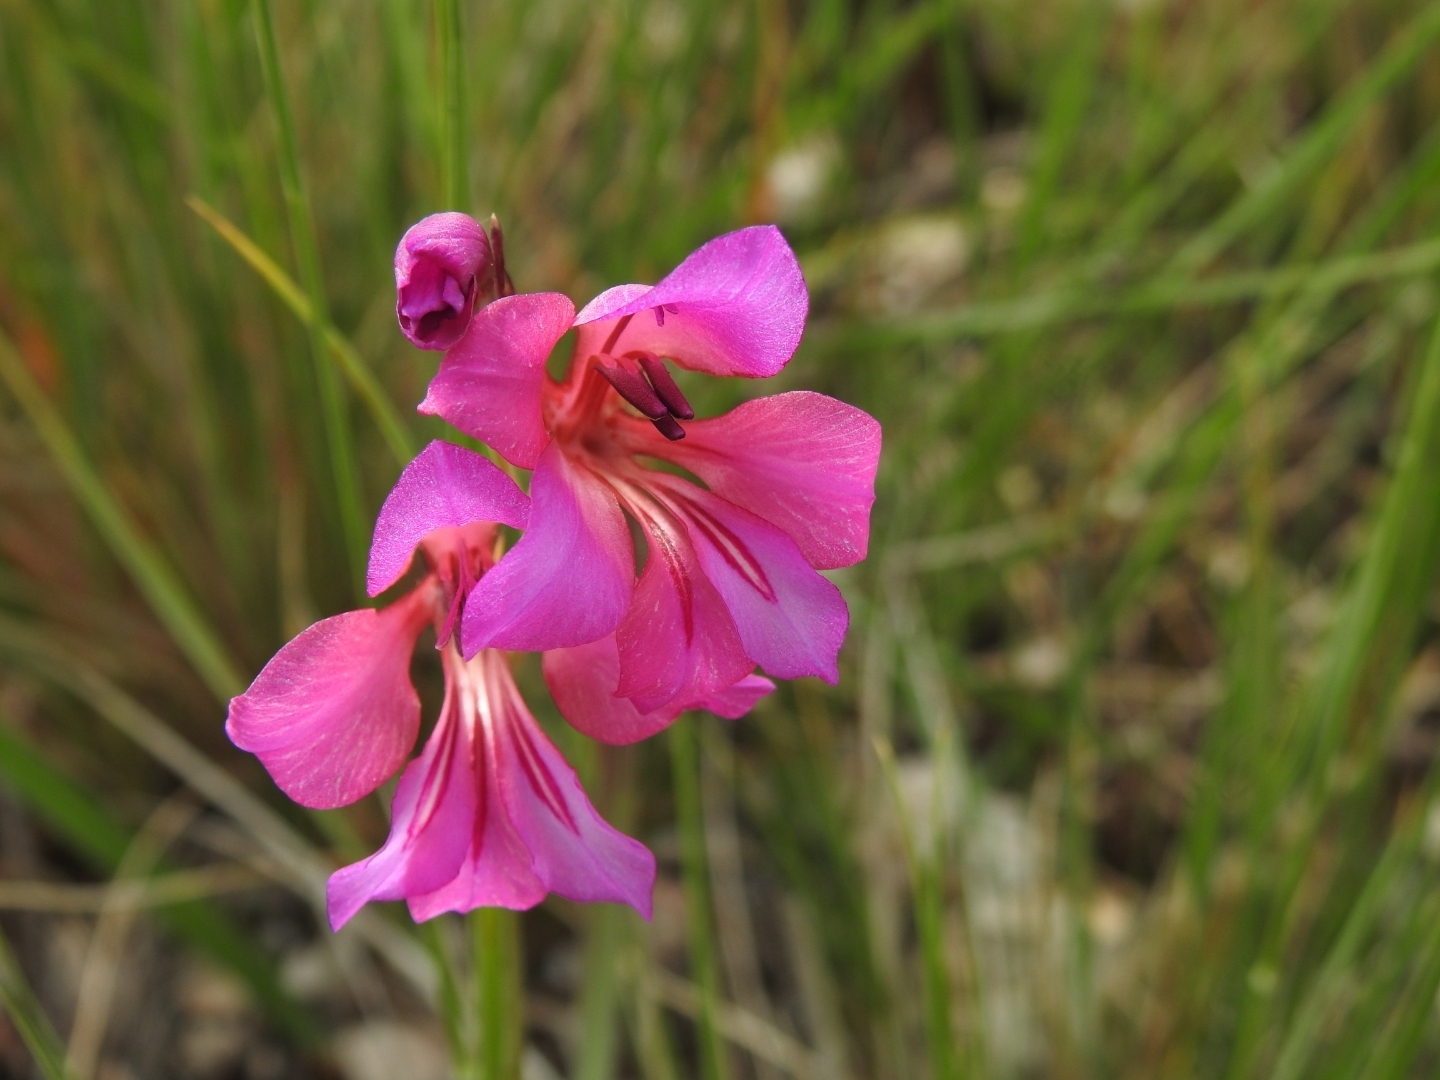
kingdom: Plantae
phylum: Tracheophyta
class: Liliopsida
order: Asparagales
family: Iridaceae
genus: Gladiolus
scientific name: Gladiolus dubius
